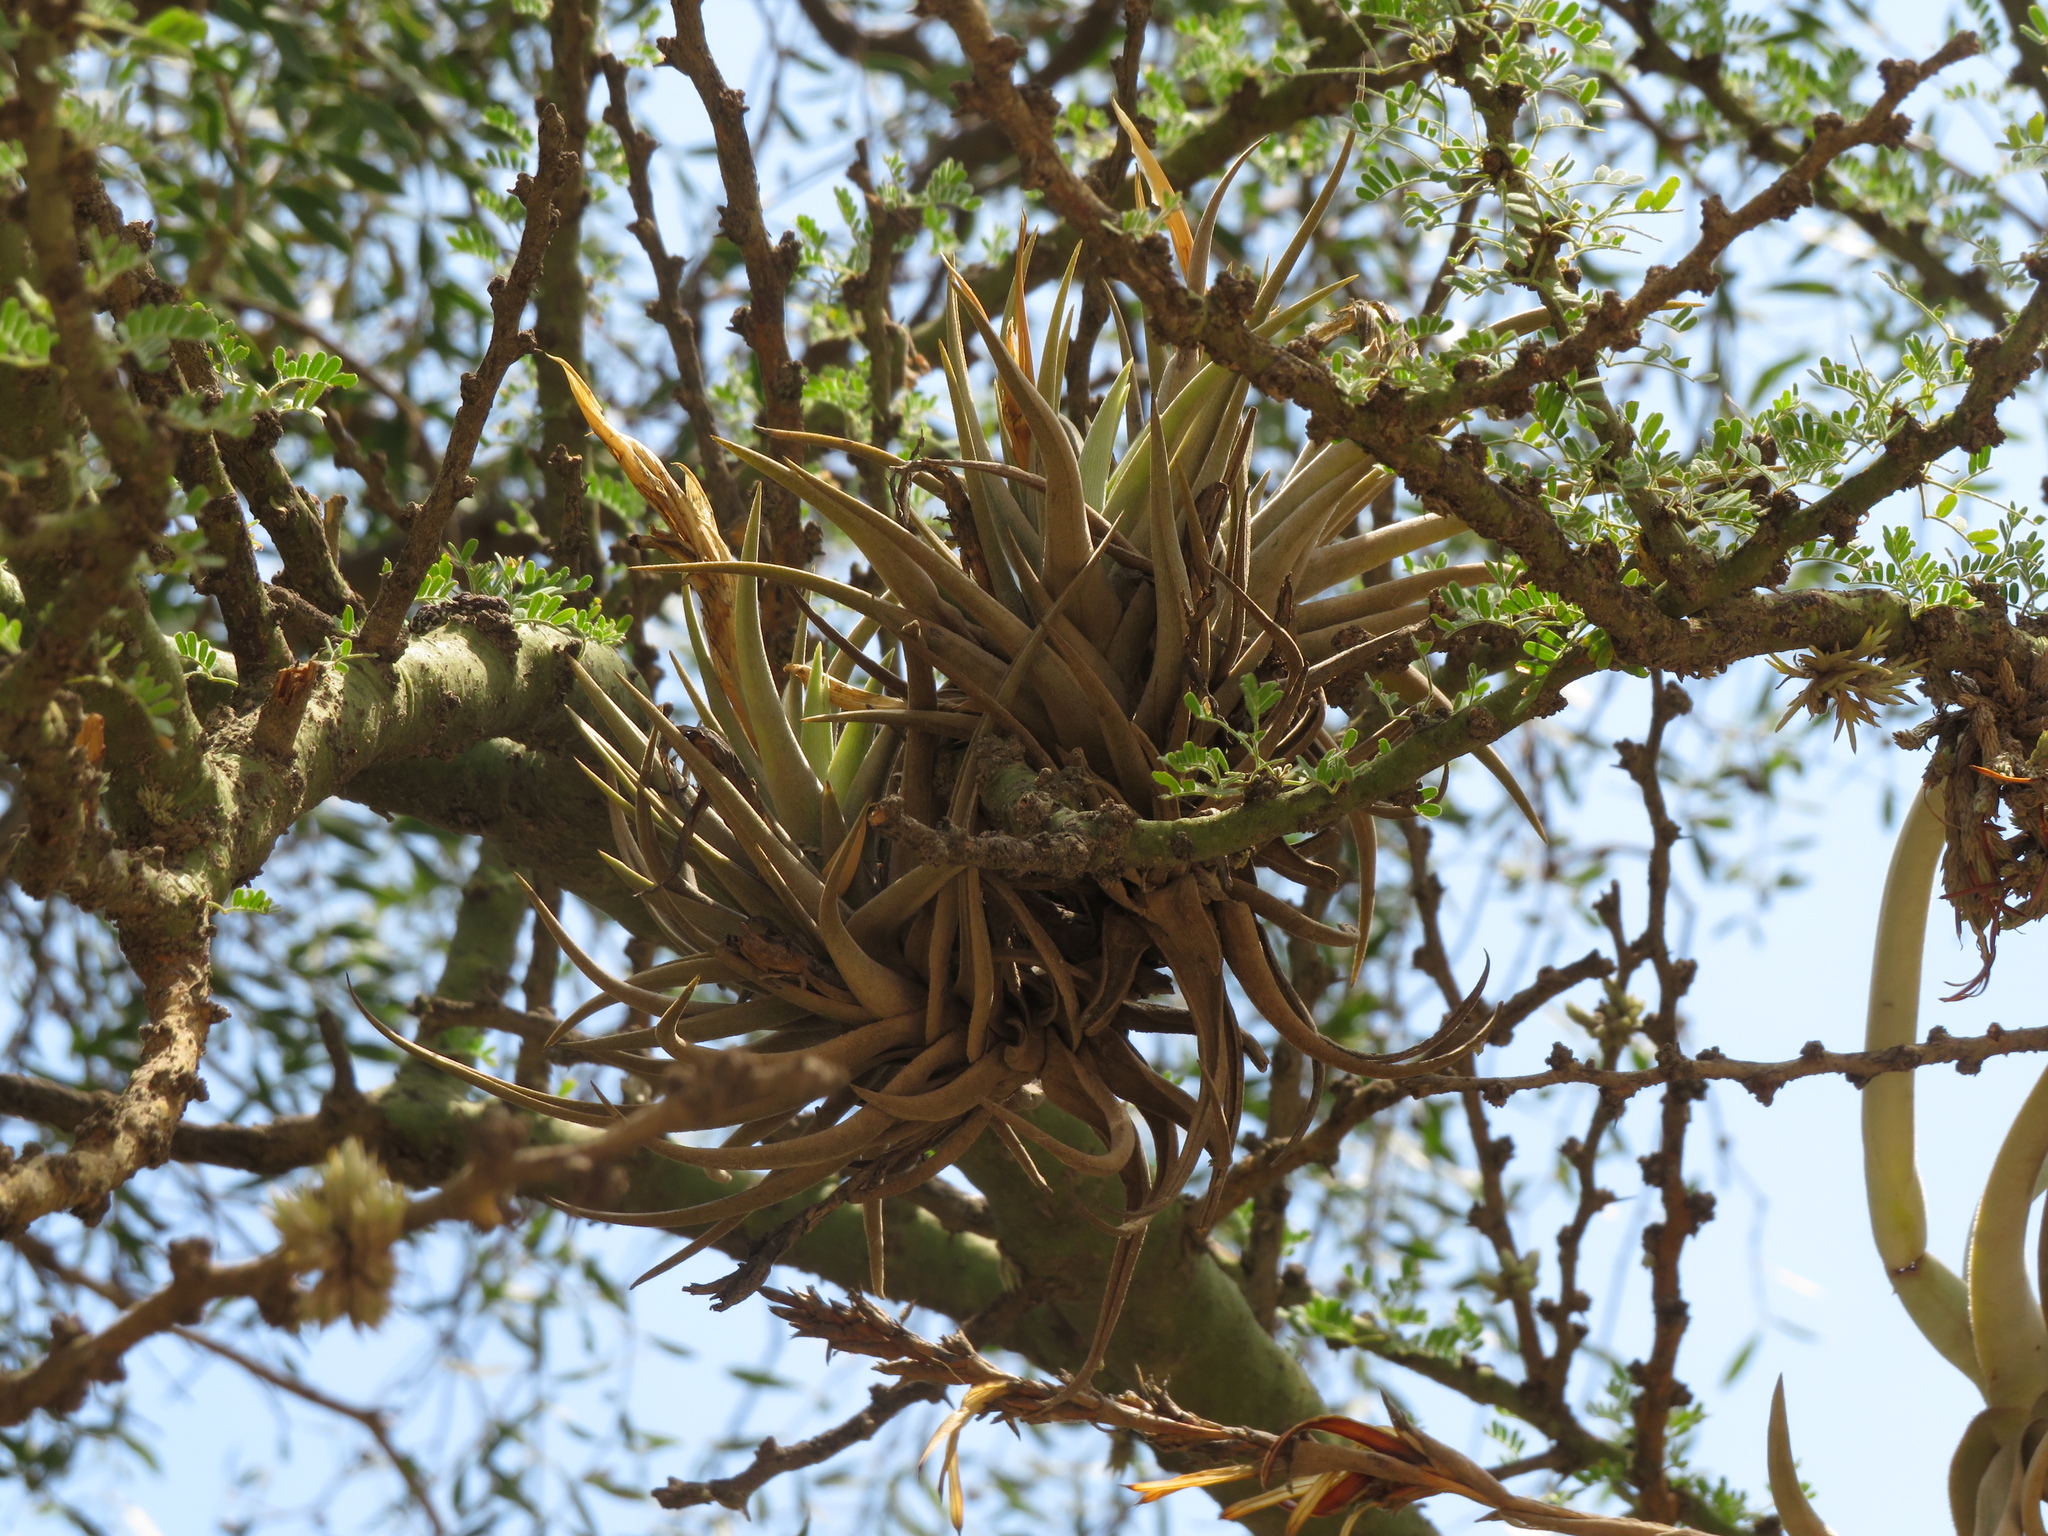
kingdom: Plantae
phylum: Tracheophyta
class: Liliopsida
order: Poales
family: Bromeliaceae
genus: Tillandsia
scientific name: Tillandsia xiphioides
